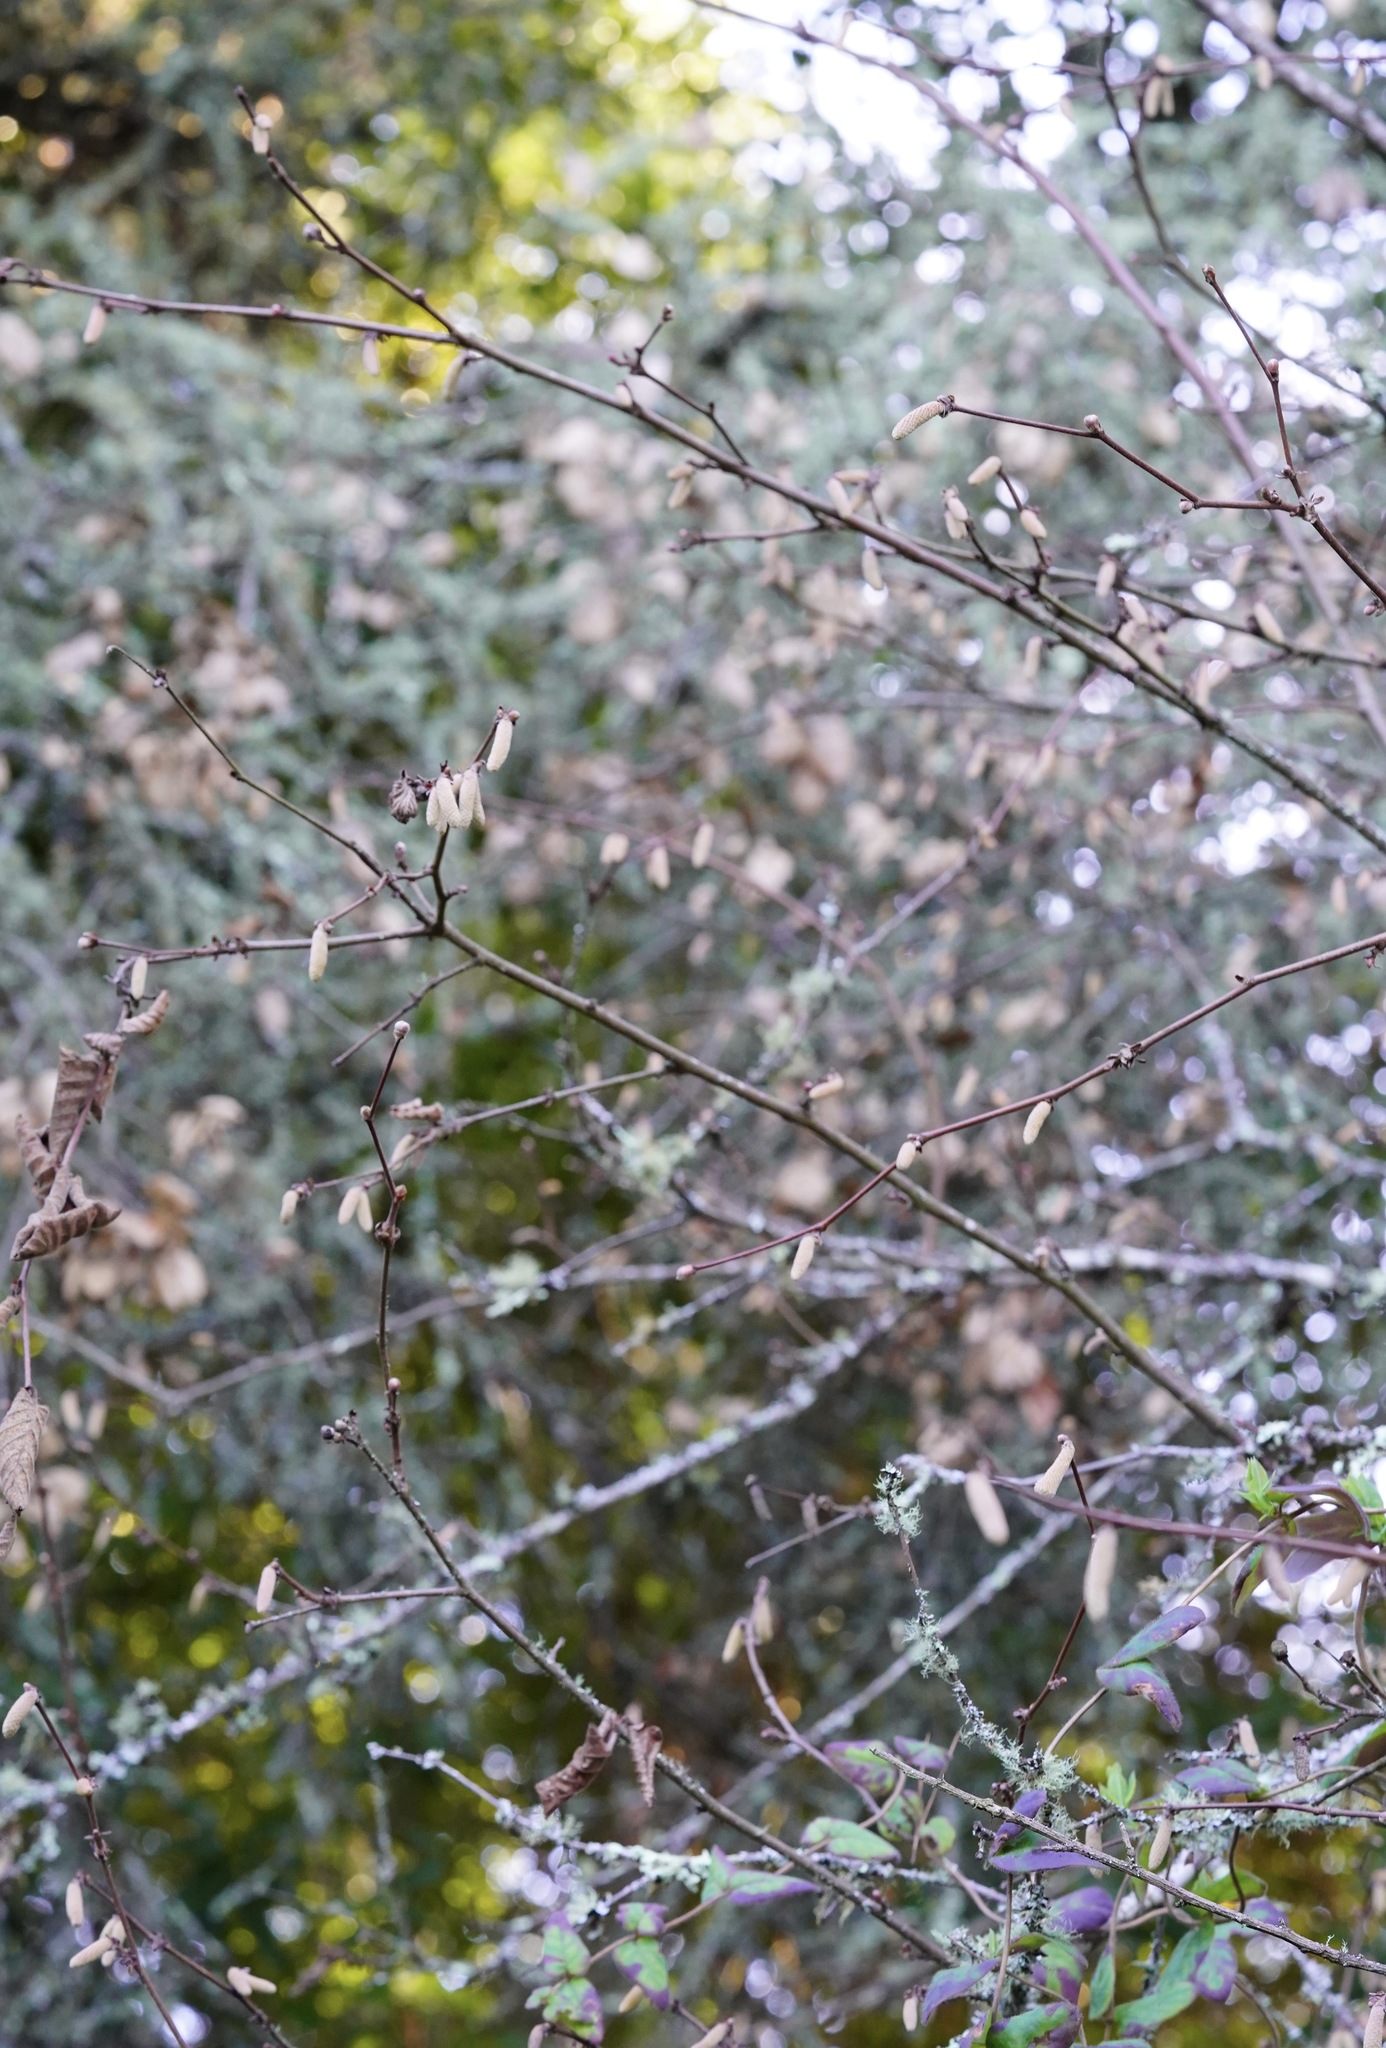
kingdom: Plantae
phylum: Tracheophyta
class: Magnoliopsida
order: Fagales
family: Betulaceae
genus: Corylus
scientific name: Corylus cornuta
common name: Beaked hazel
